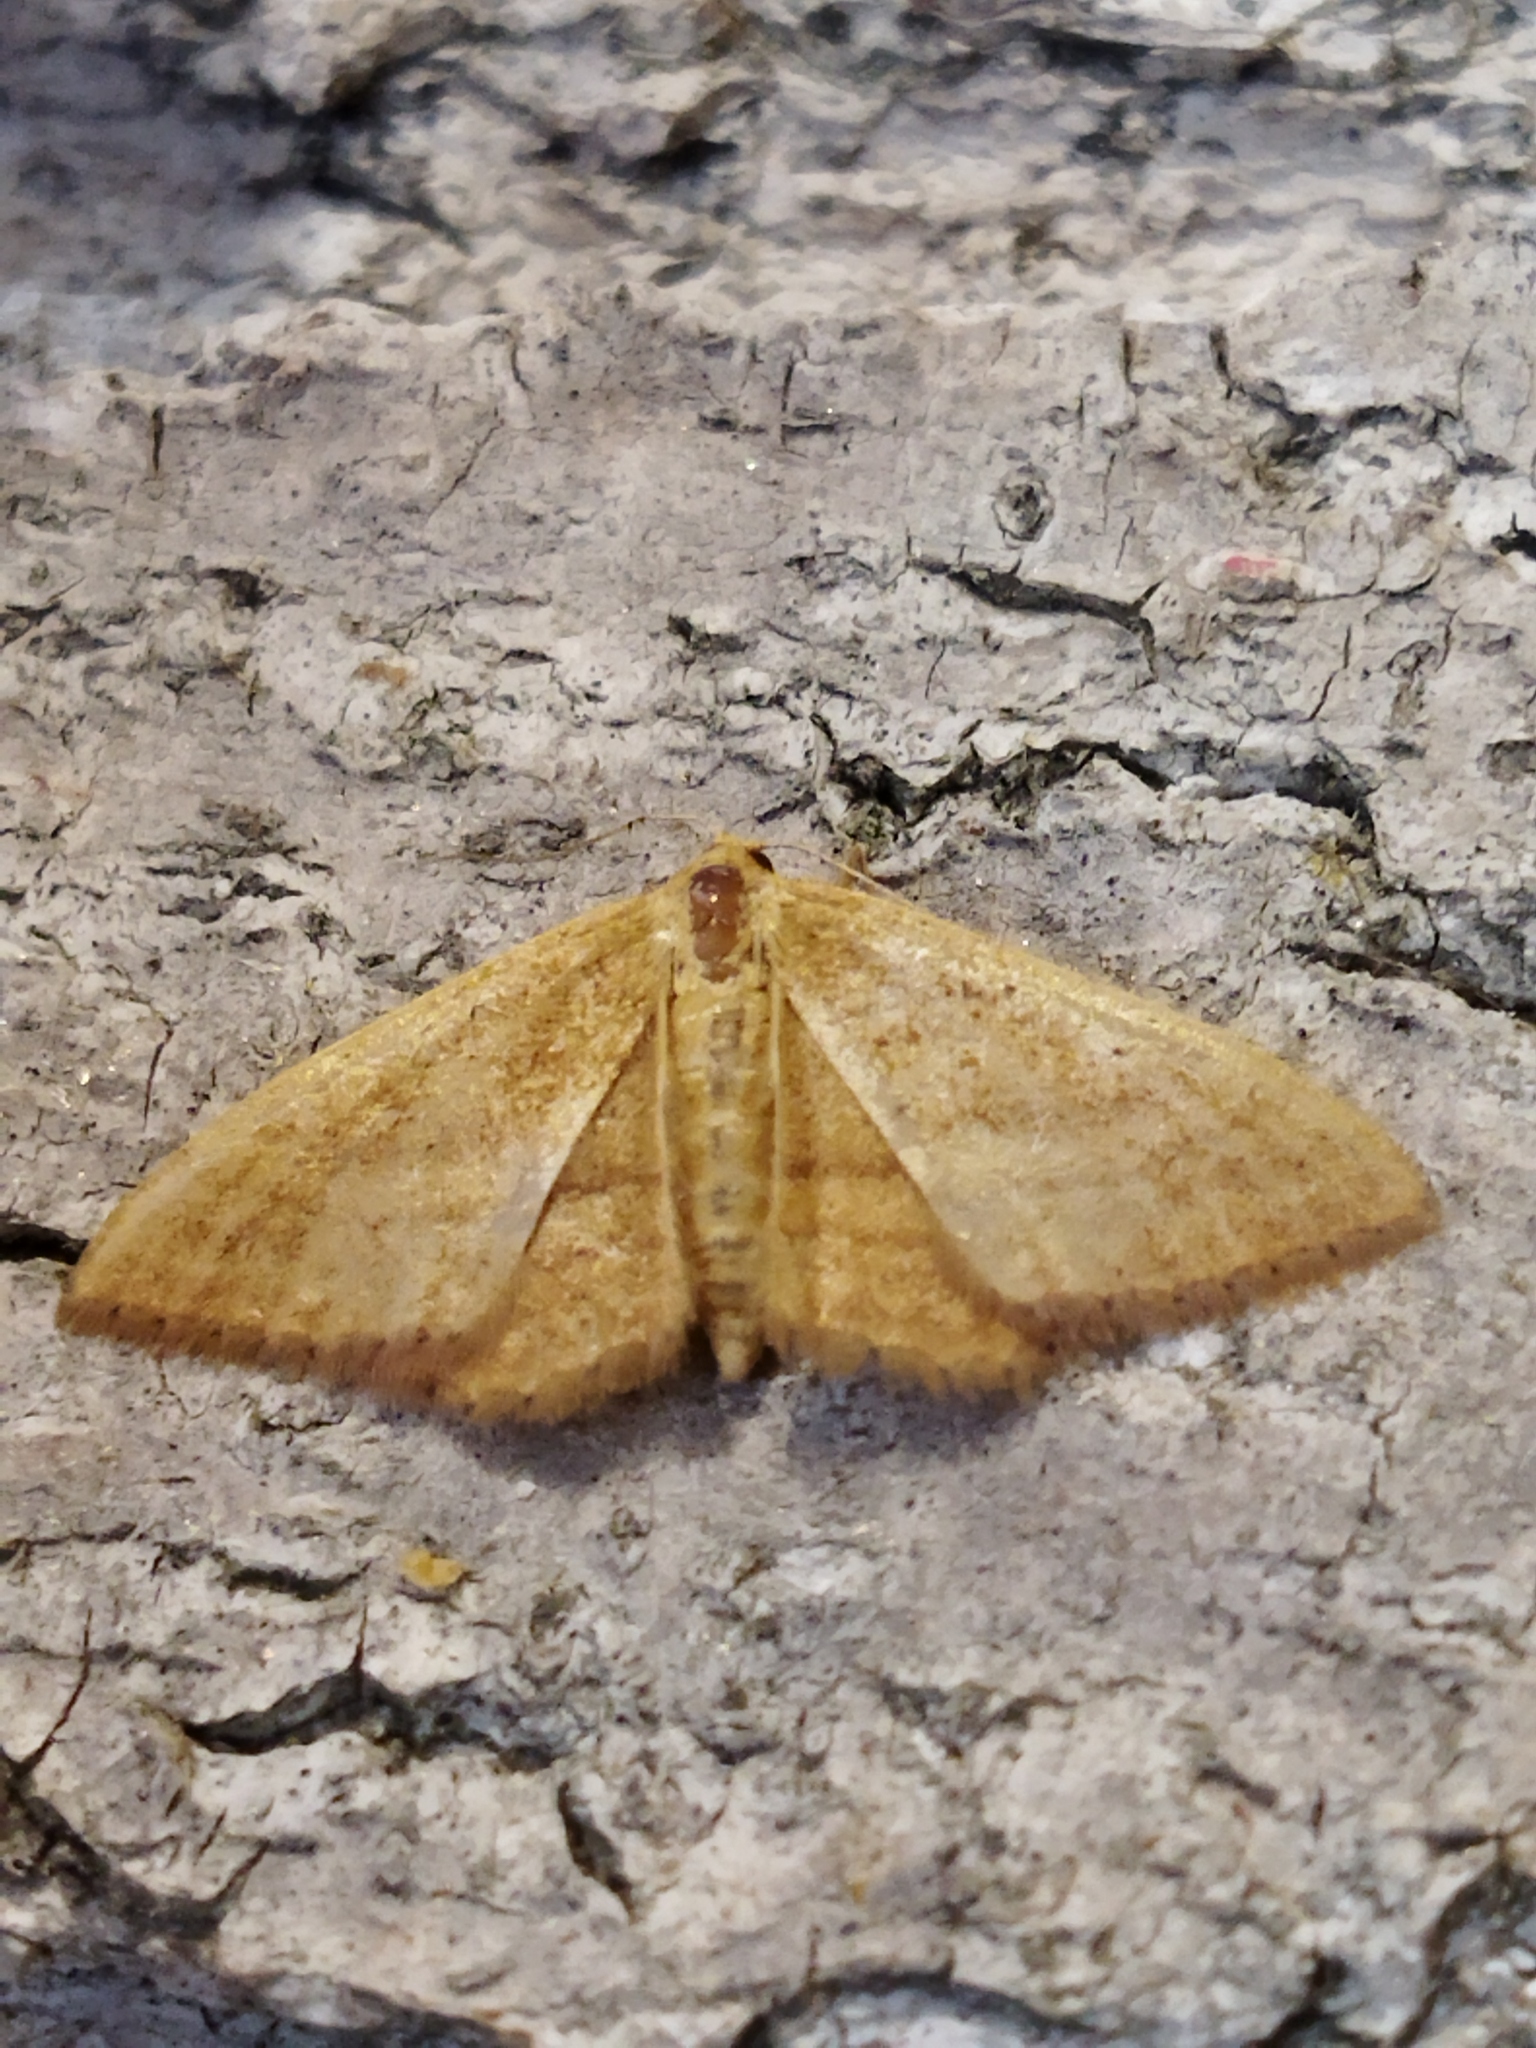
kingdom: Animalia
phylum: Arthropoda
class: Insecta
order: Lepidoptera
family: Geometridae
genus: Idaea
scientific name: Idaea ochrata
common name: Bright wave
